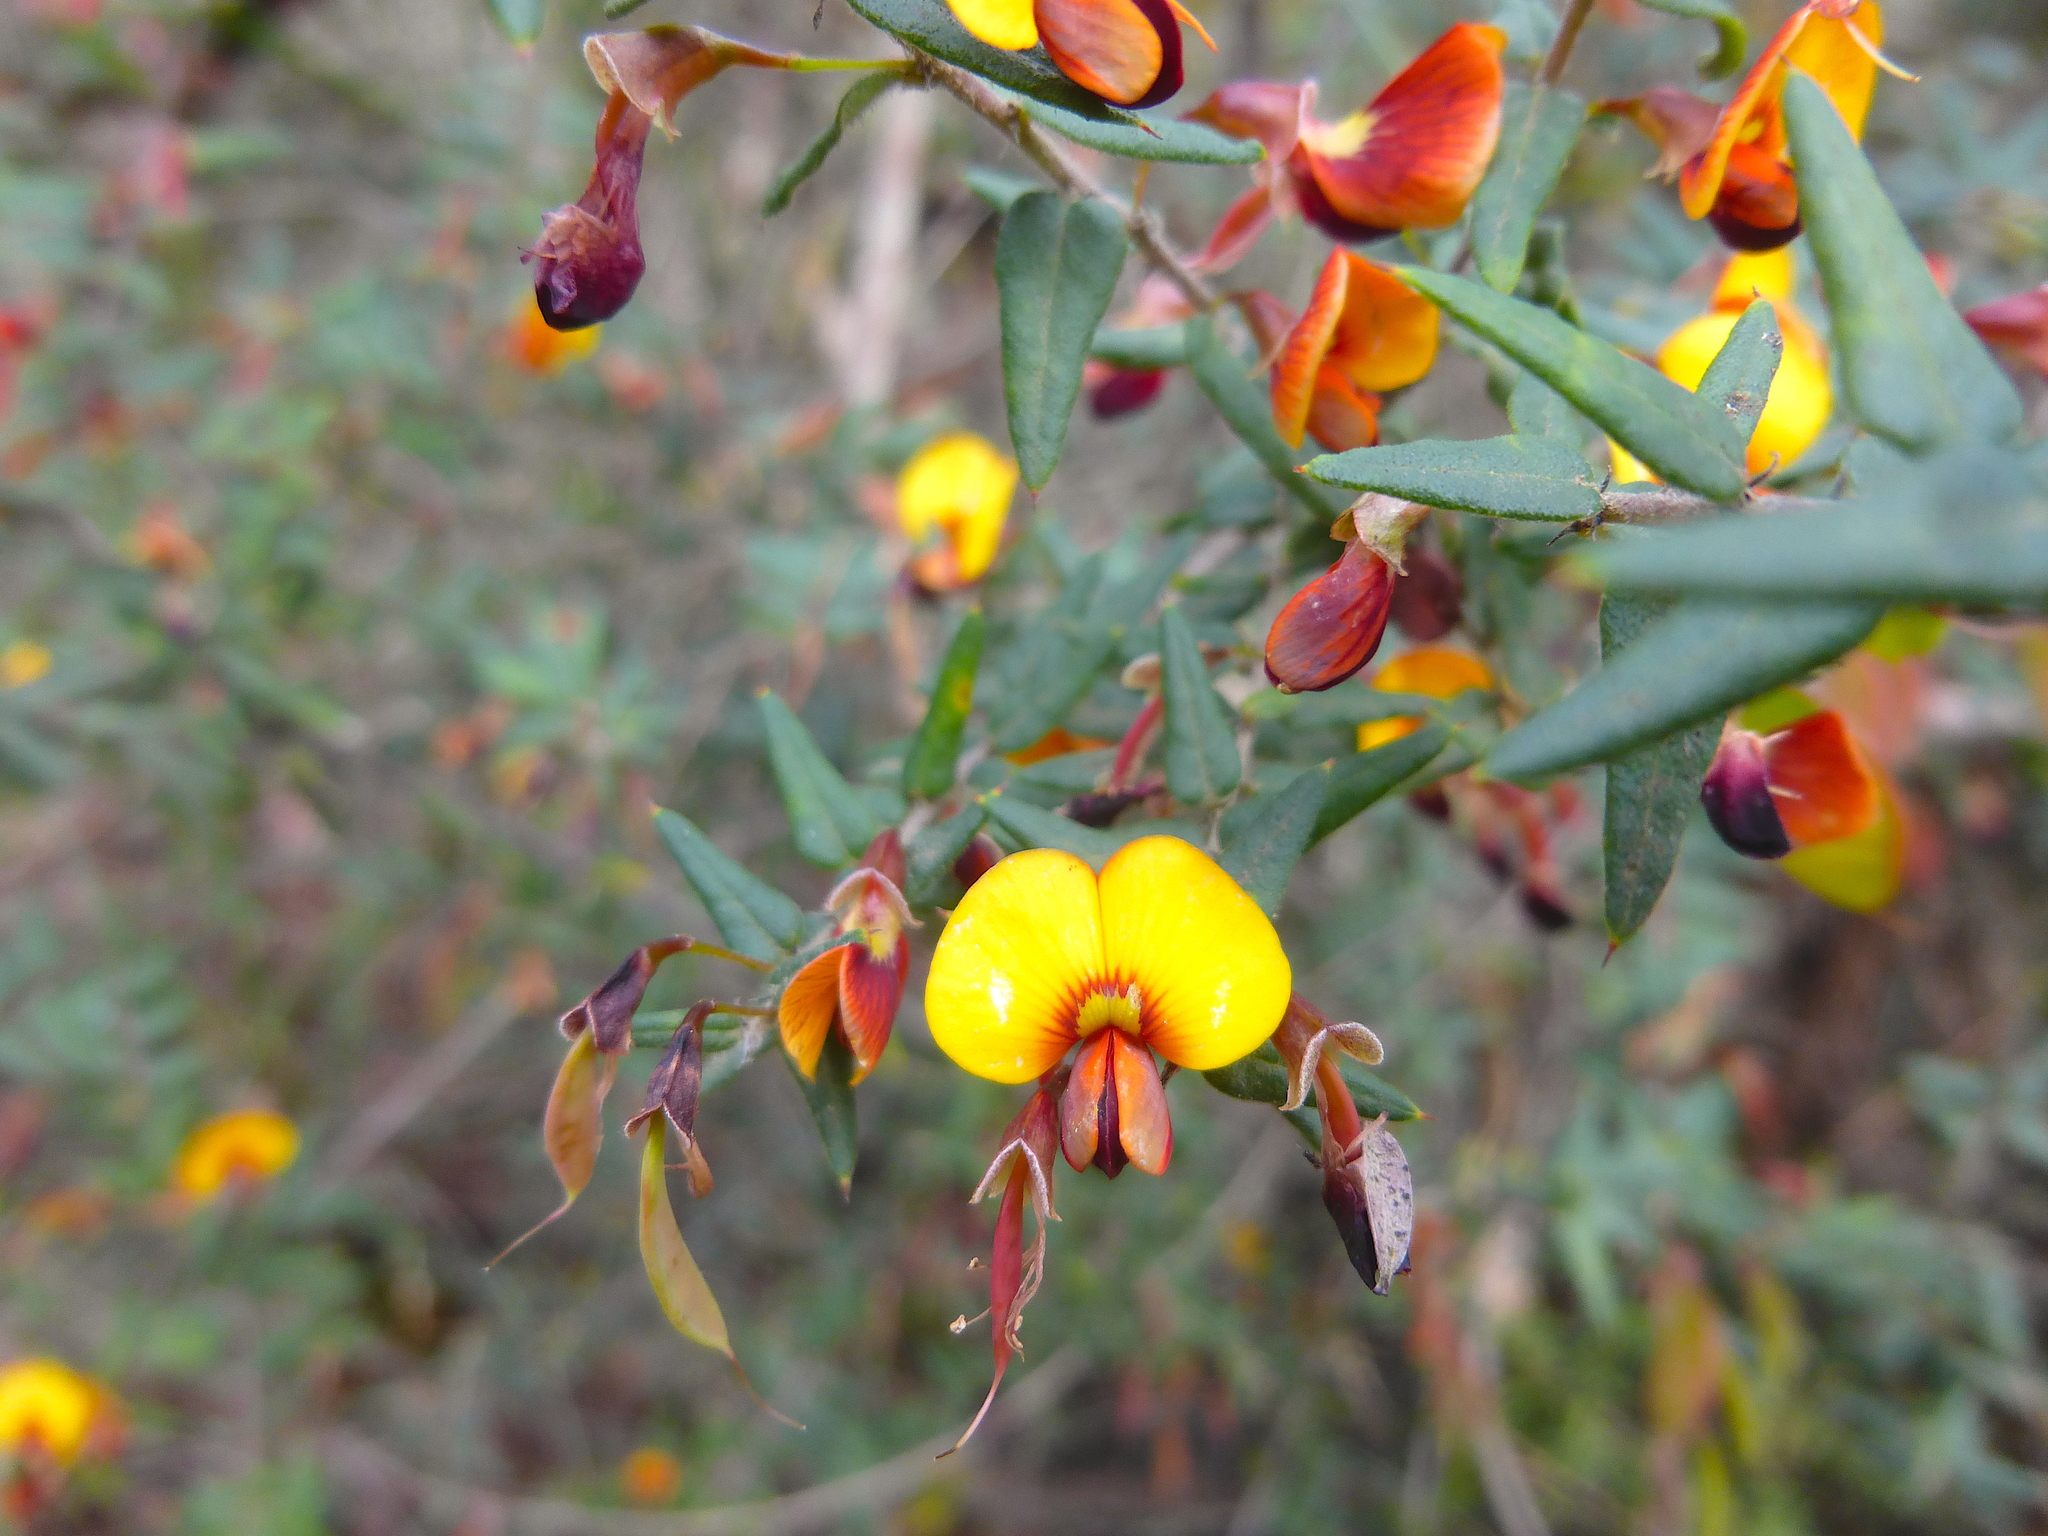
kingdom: Plantae
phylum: Tracheophyta
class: Magnoliopsida
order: Fabales
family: Fabaceae
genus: Bossiaea
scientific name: Bossiaea cinerea
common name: Showy bossiaea
